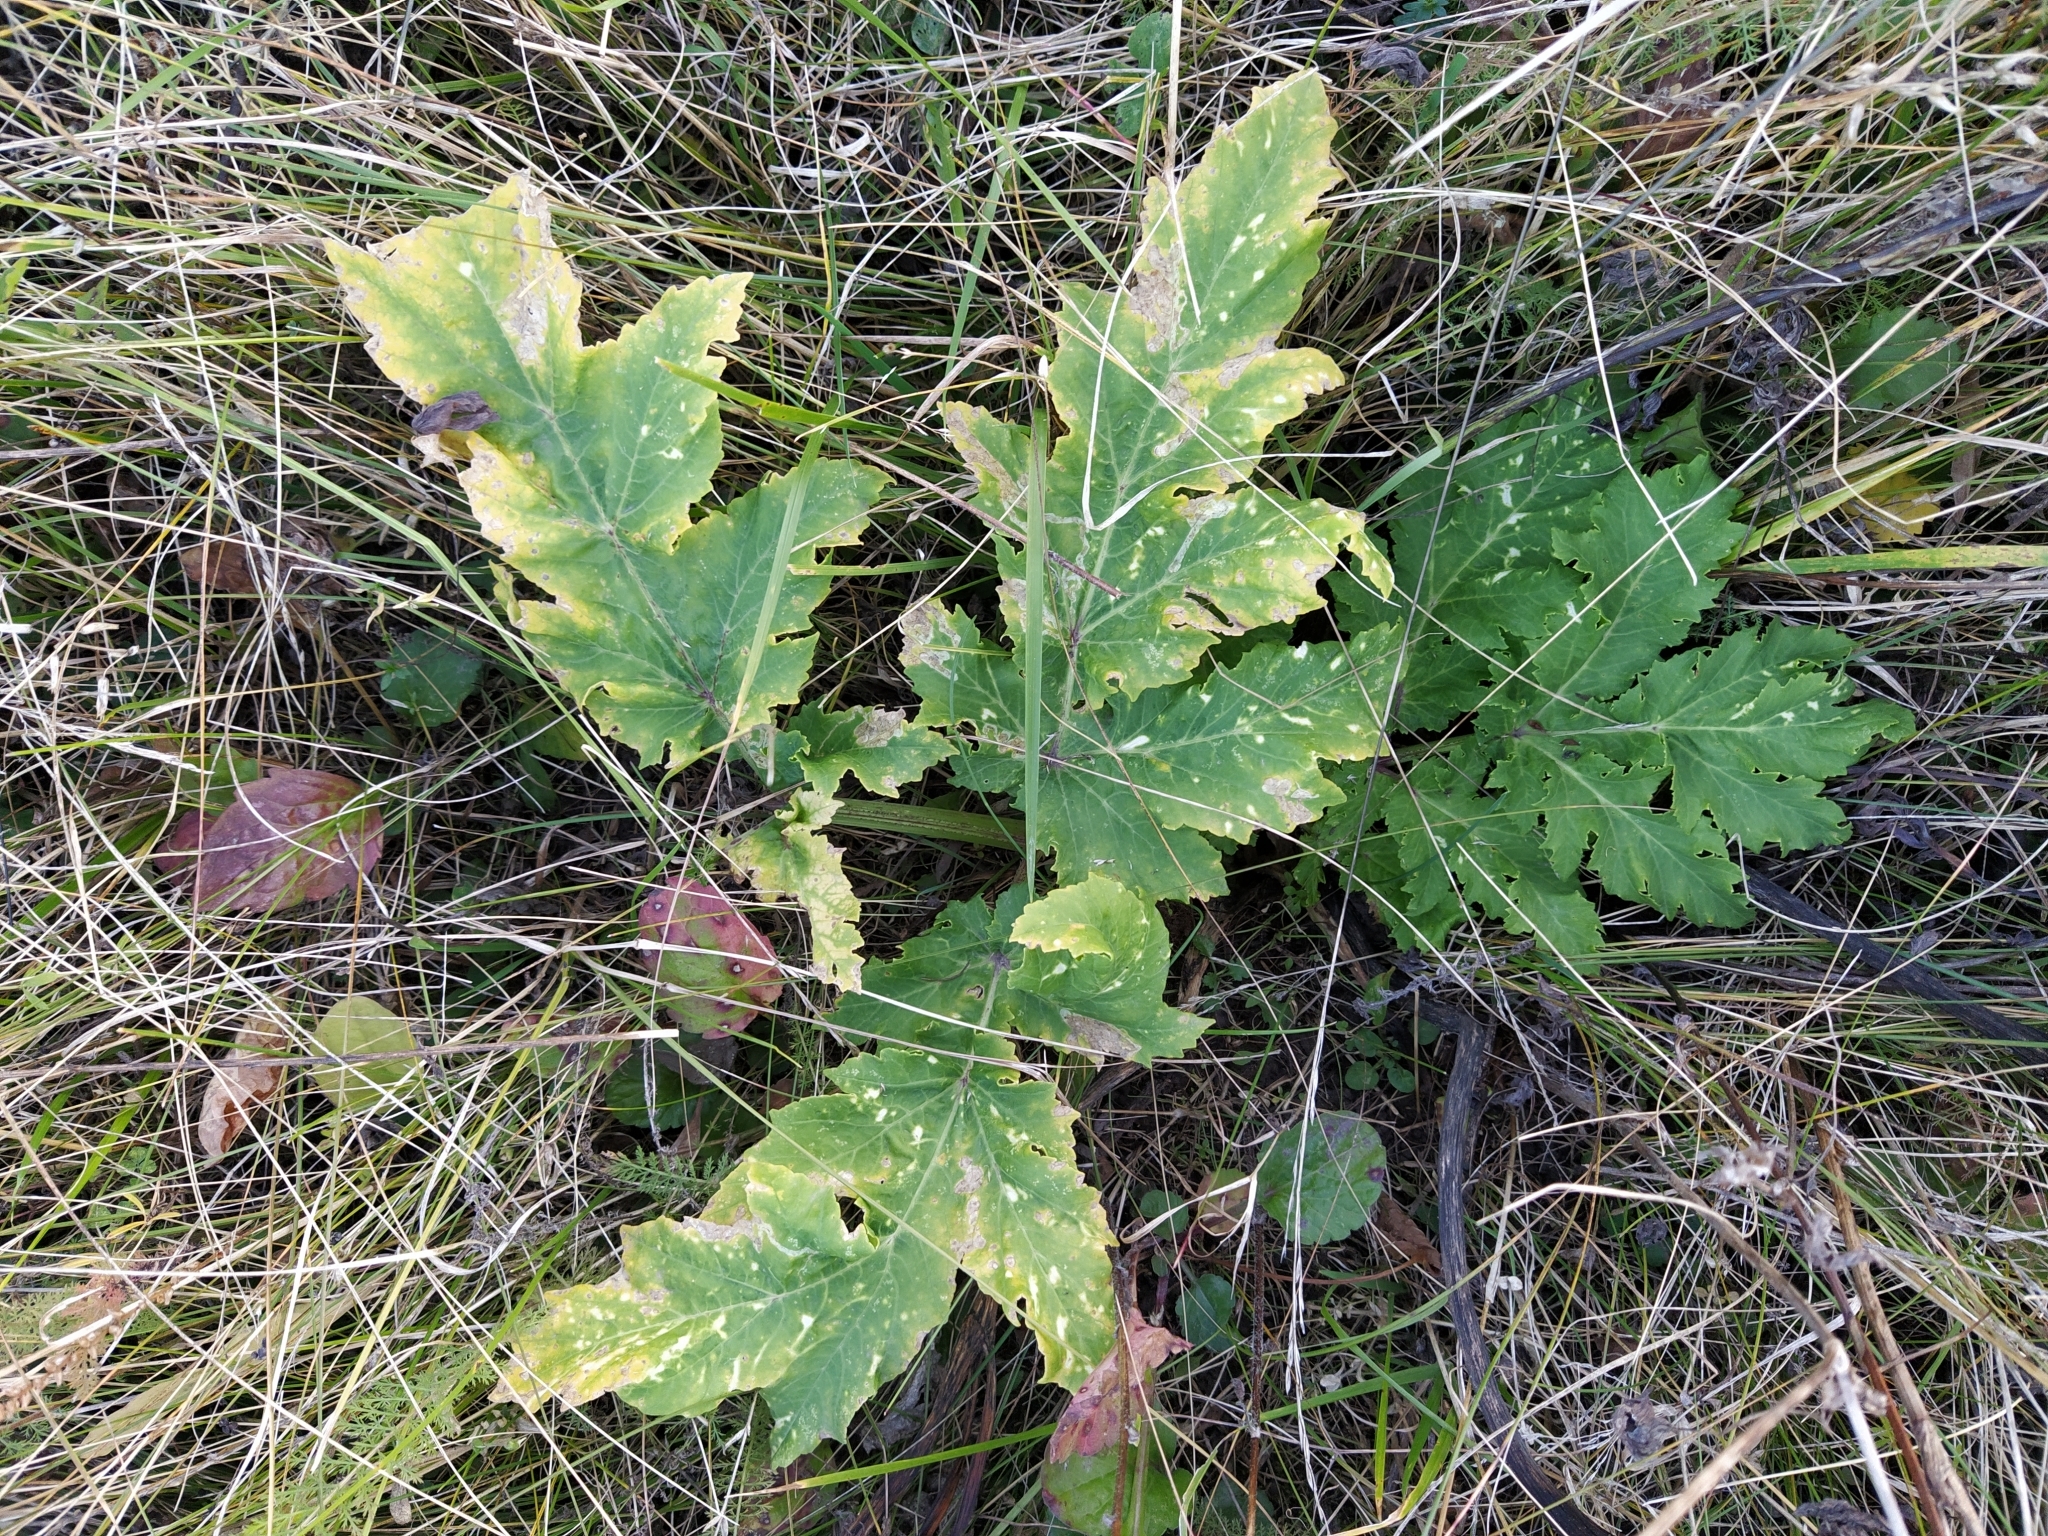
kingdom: Plantae
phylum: Tracheophyta
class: Magnoliopsida
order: Apiales
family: Apiaceae
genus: Heracleum
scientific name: Heracleum sosnowskyi
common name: Sosnowsky's hogweed
